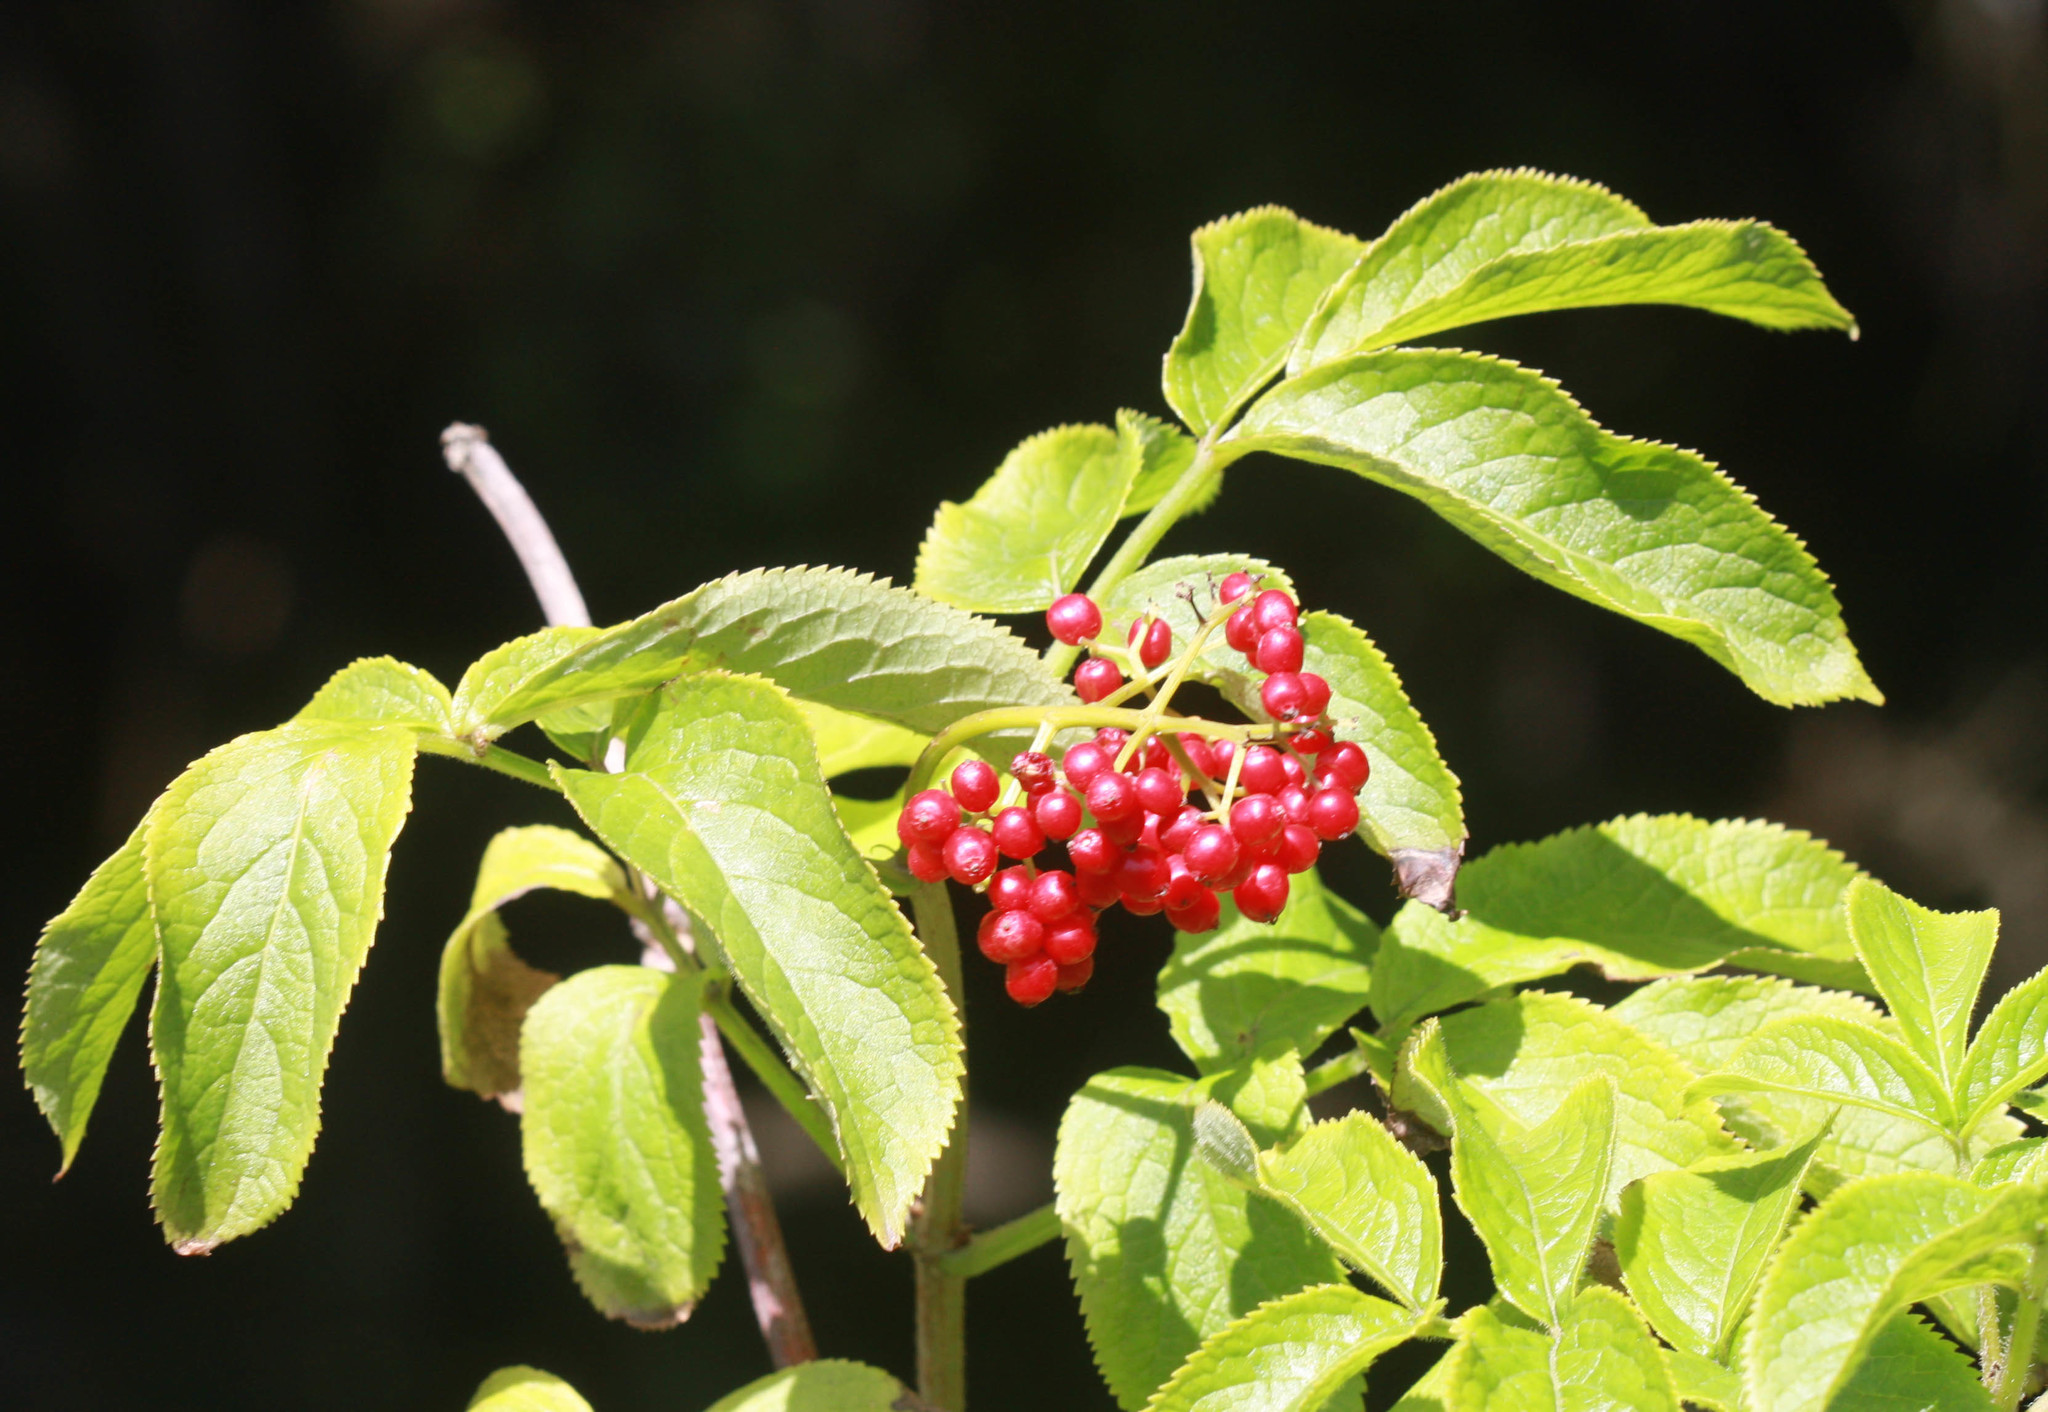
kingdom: Plantae
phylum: Tracheophyta
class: Magnoliopsida
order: Dipsacales
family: Viburnaceae
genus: Sambucus
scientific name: Sambucus racemosa
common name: Red-berried elder
